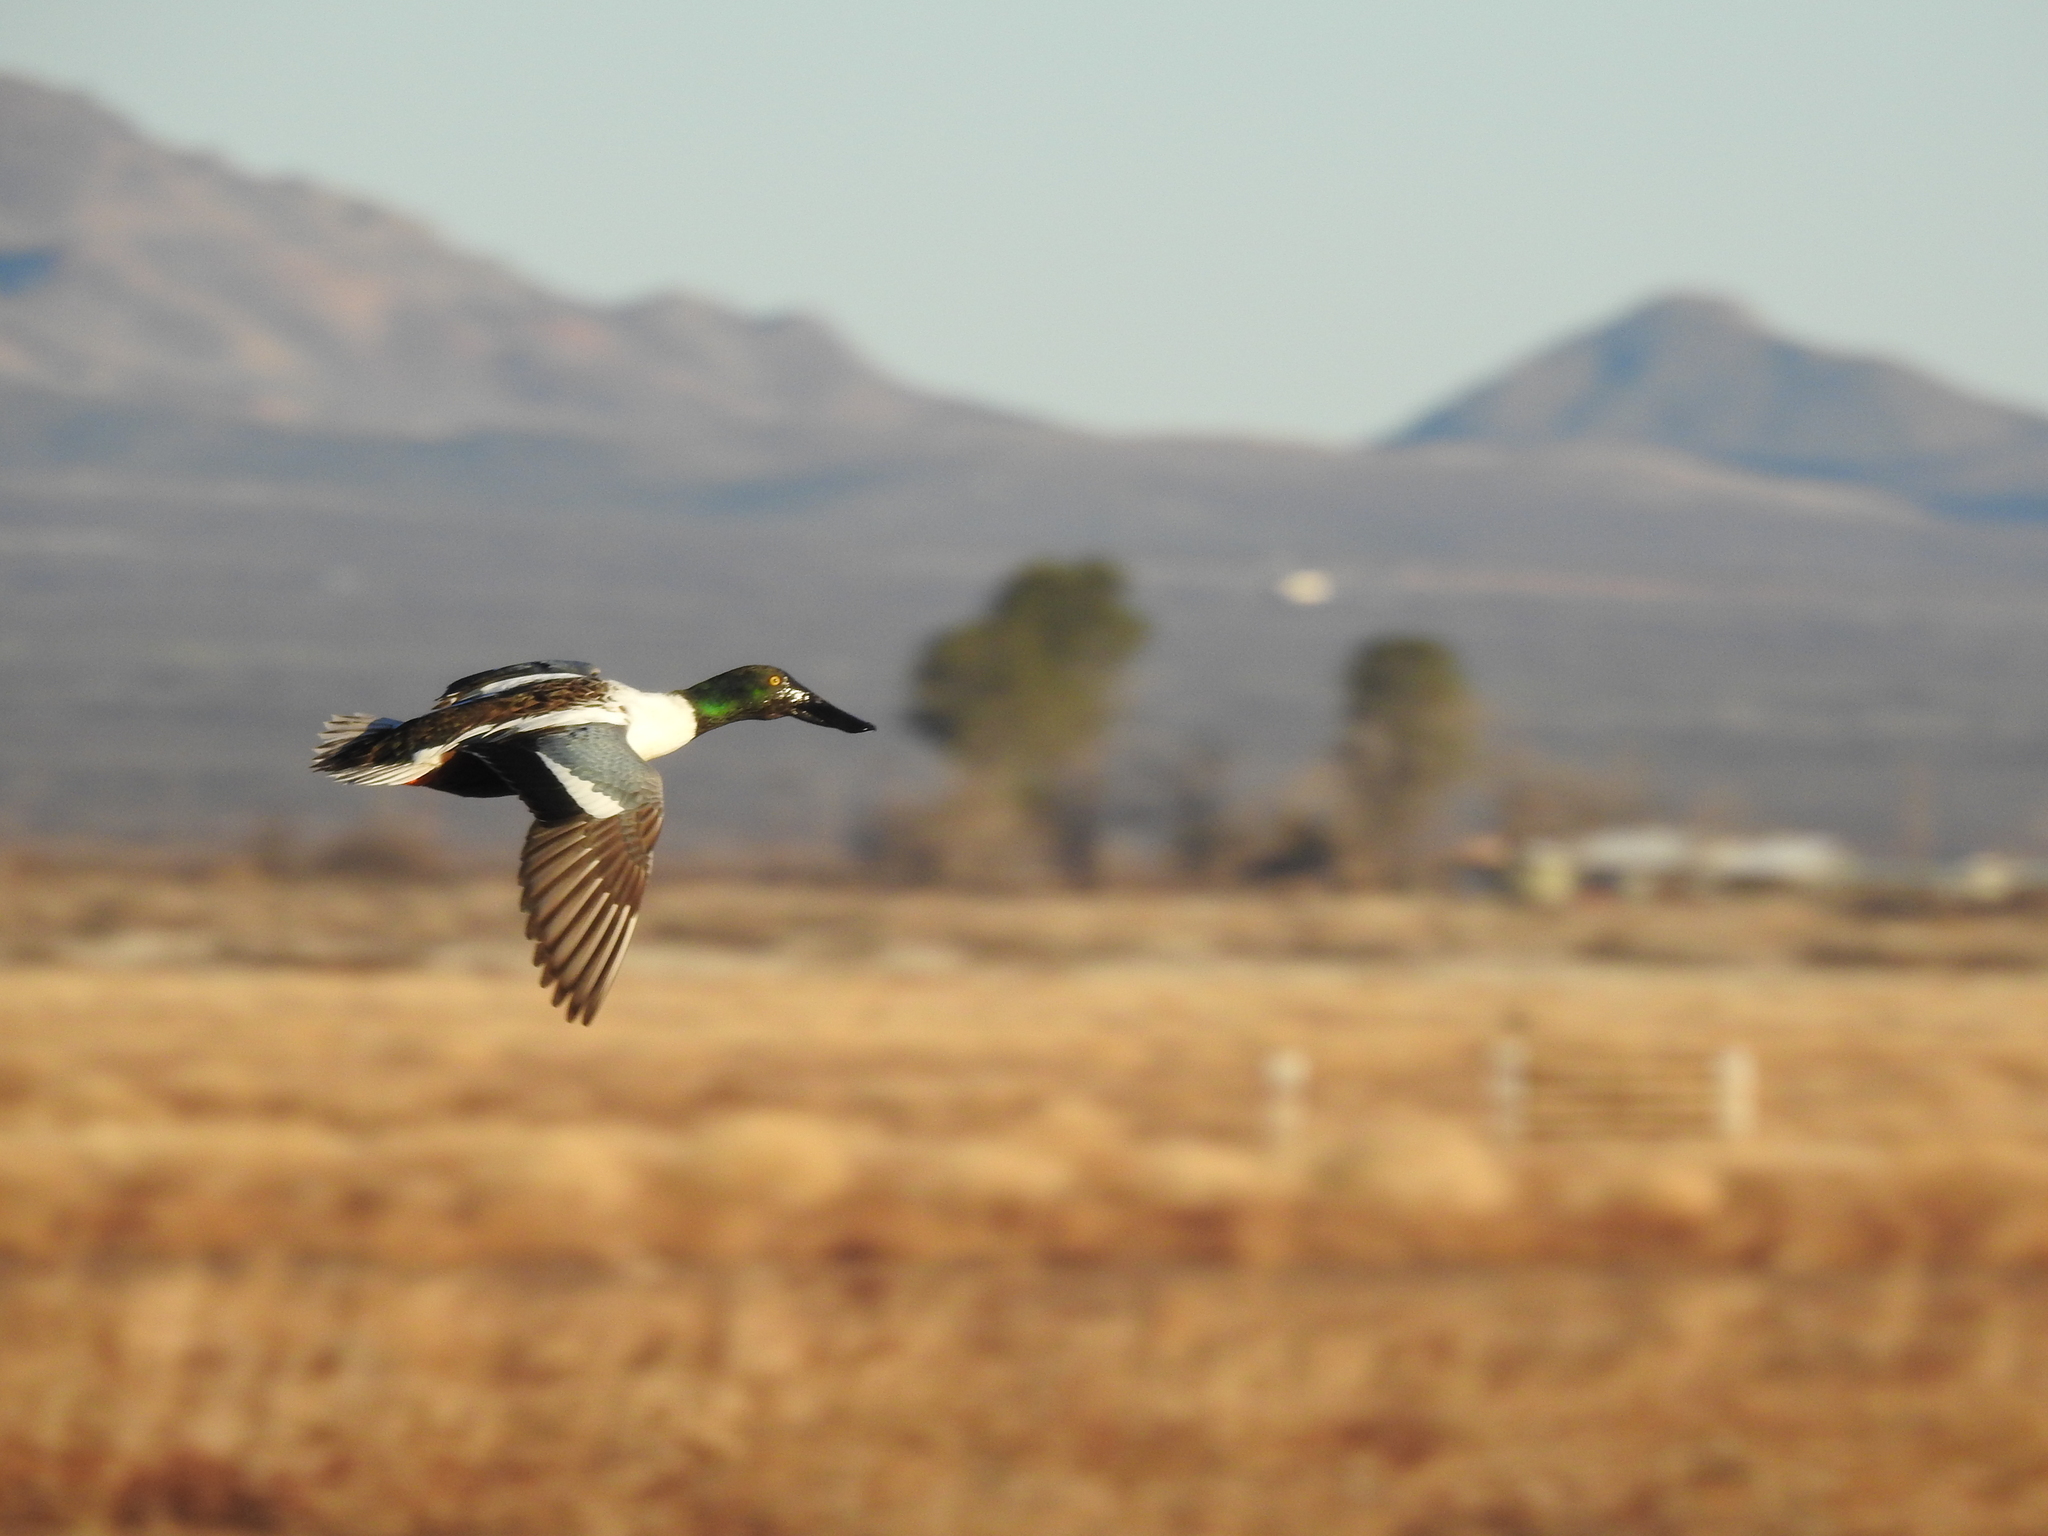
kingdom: Animalia
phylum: Chordata
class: Aves
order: Anseriformes
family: Anatidae
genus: Spatula
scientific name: Spatula clypeata
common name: Northern shoveler
